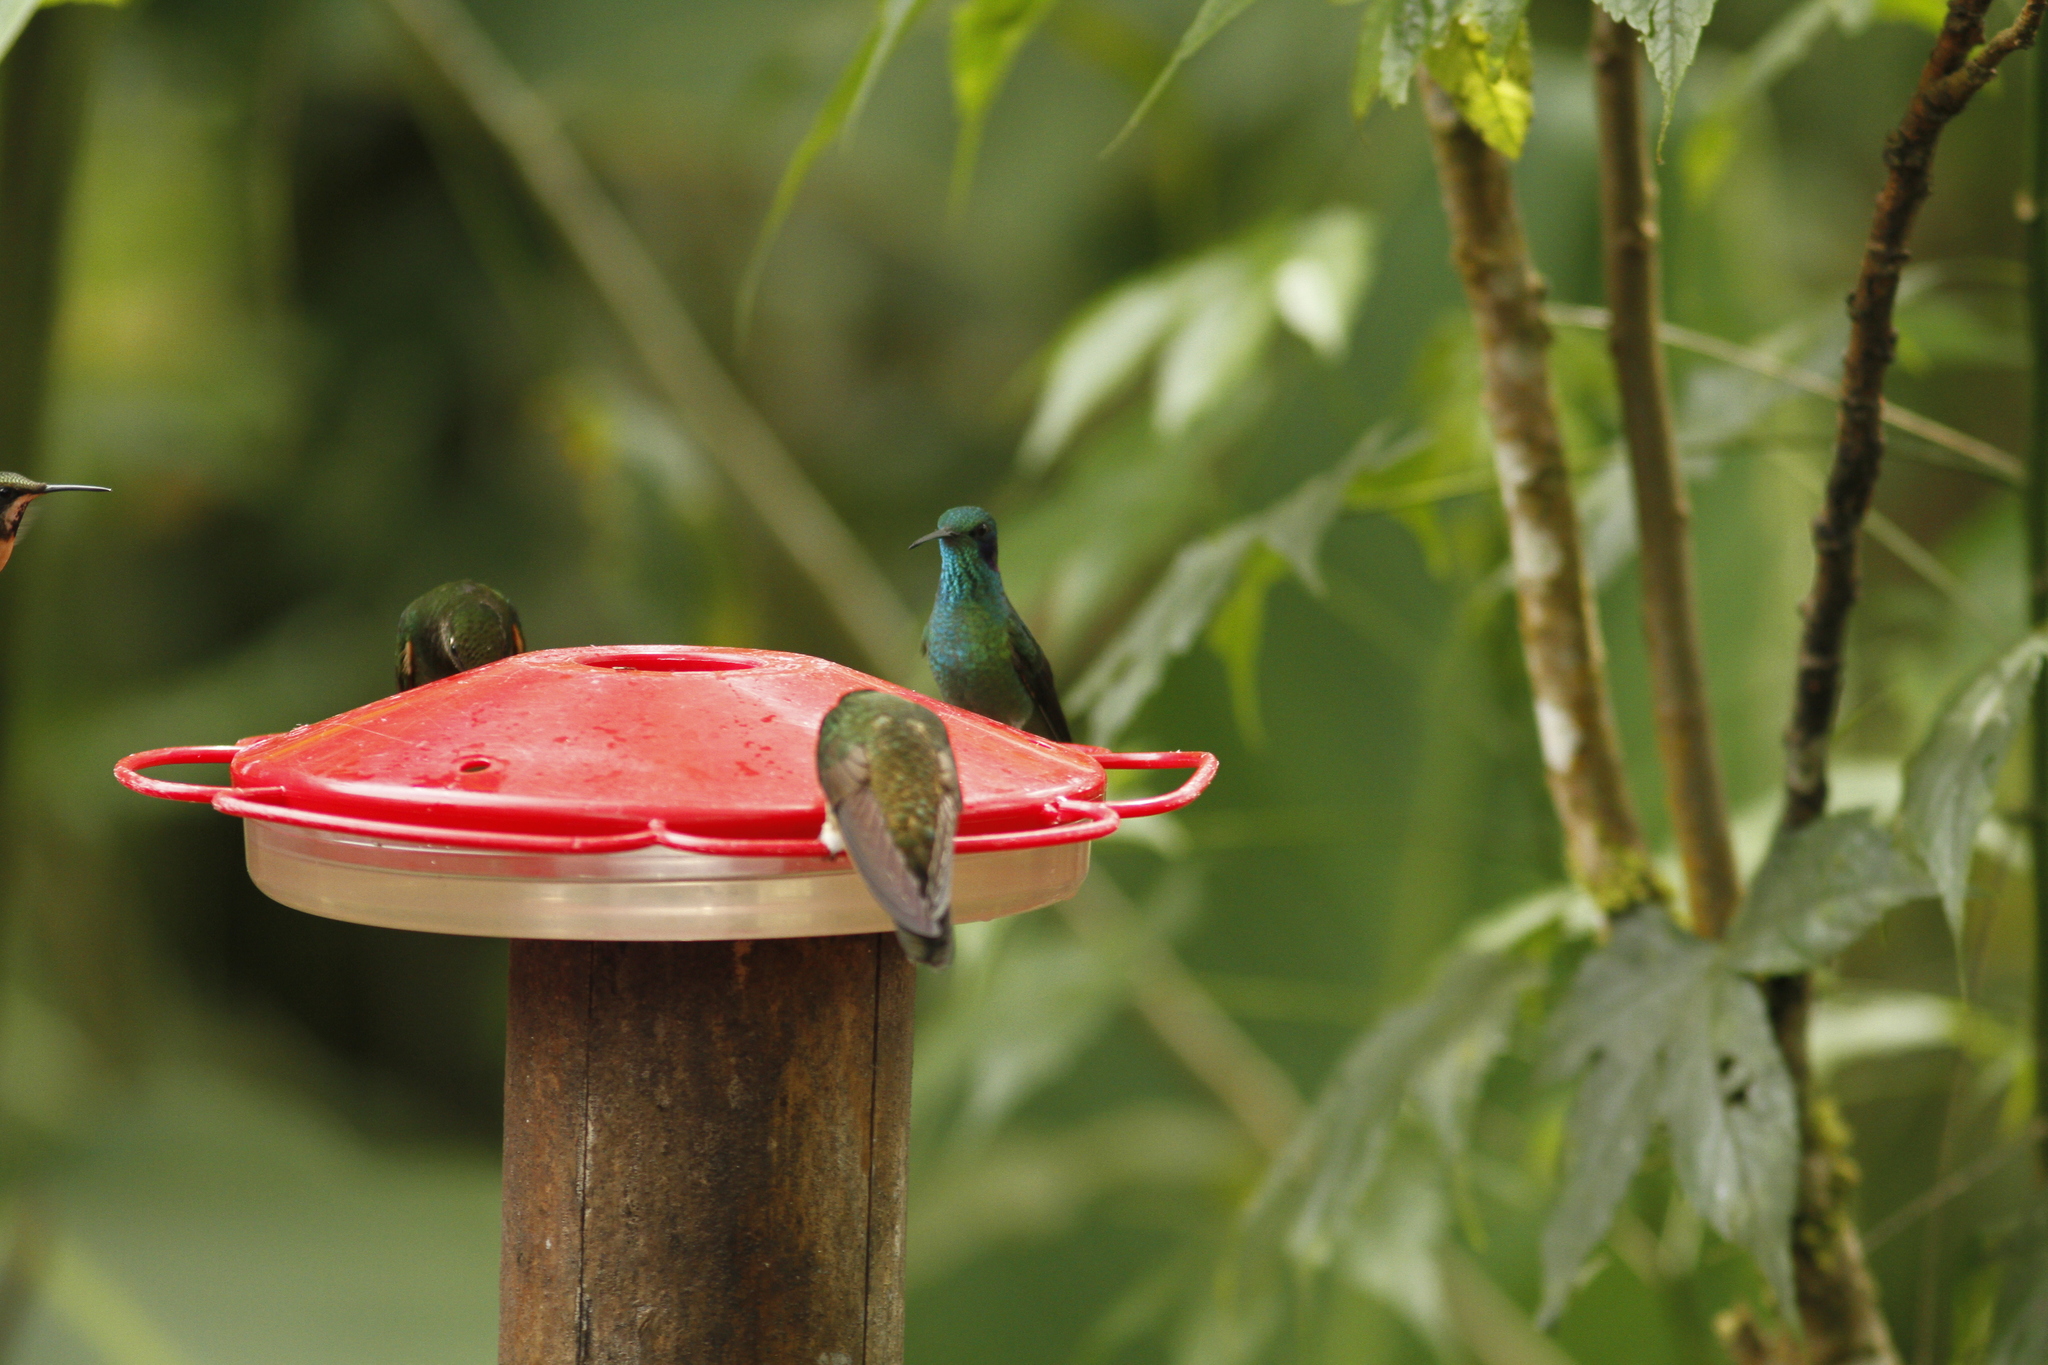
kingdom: Animalia
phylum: Chordata
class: Aves
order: Apodiformes
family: Trochilidae
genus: Colibri
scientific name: Colibri cyanotus
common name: Lesser violetear
